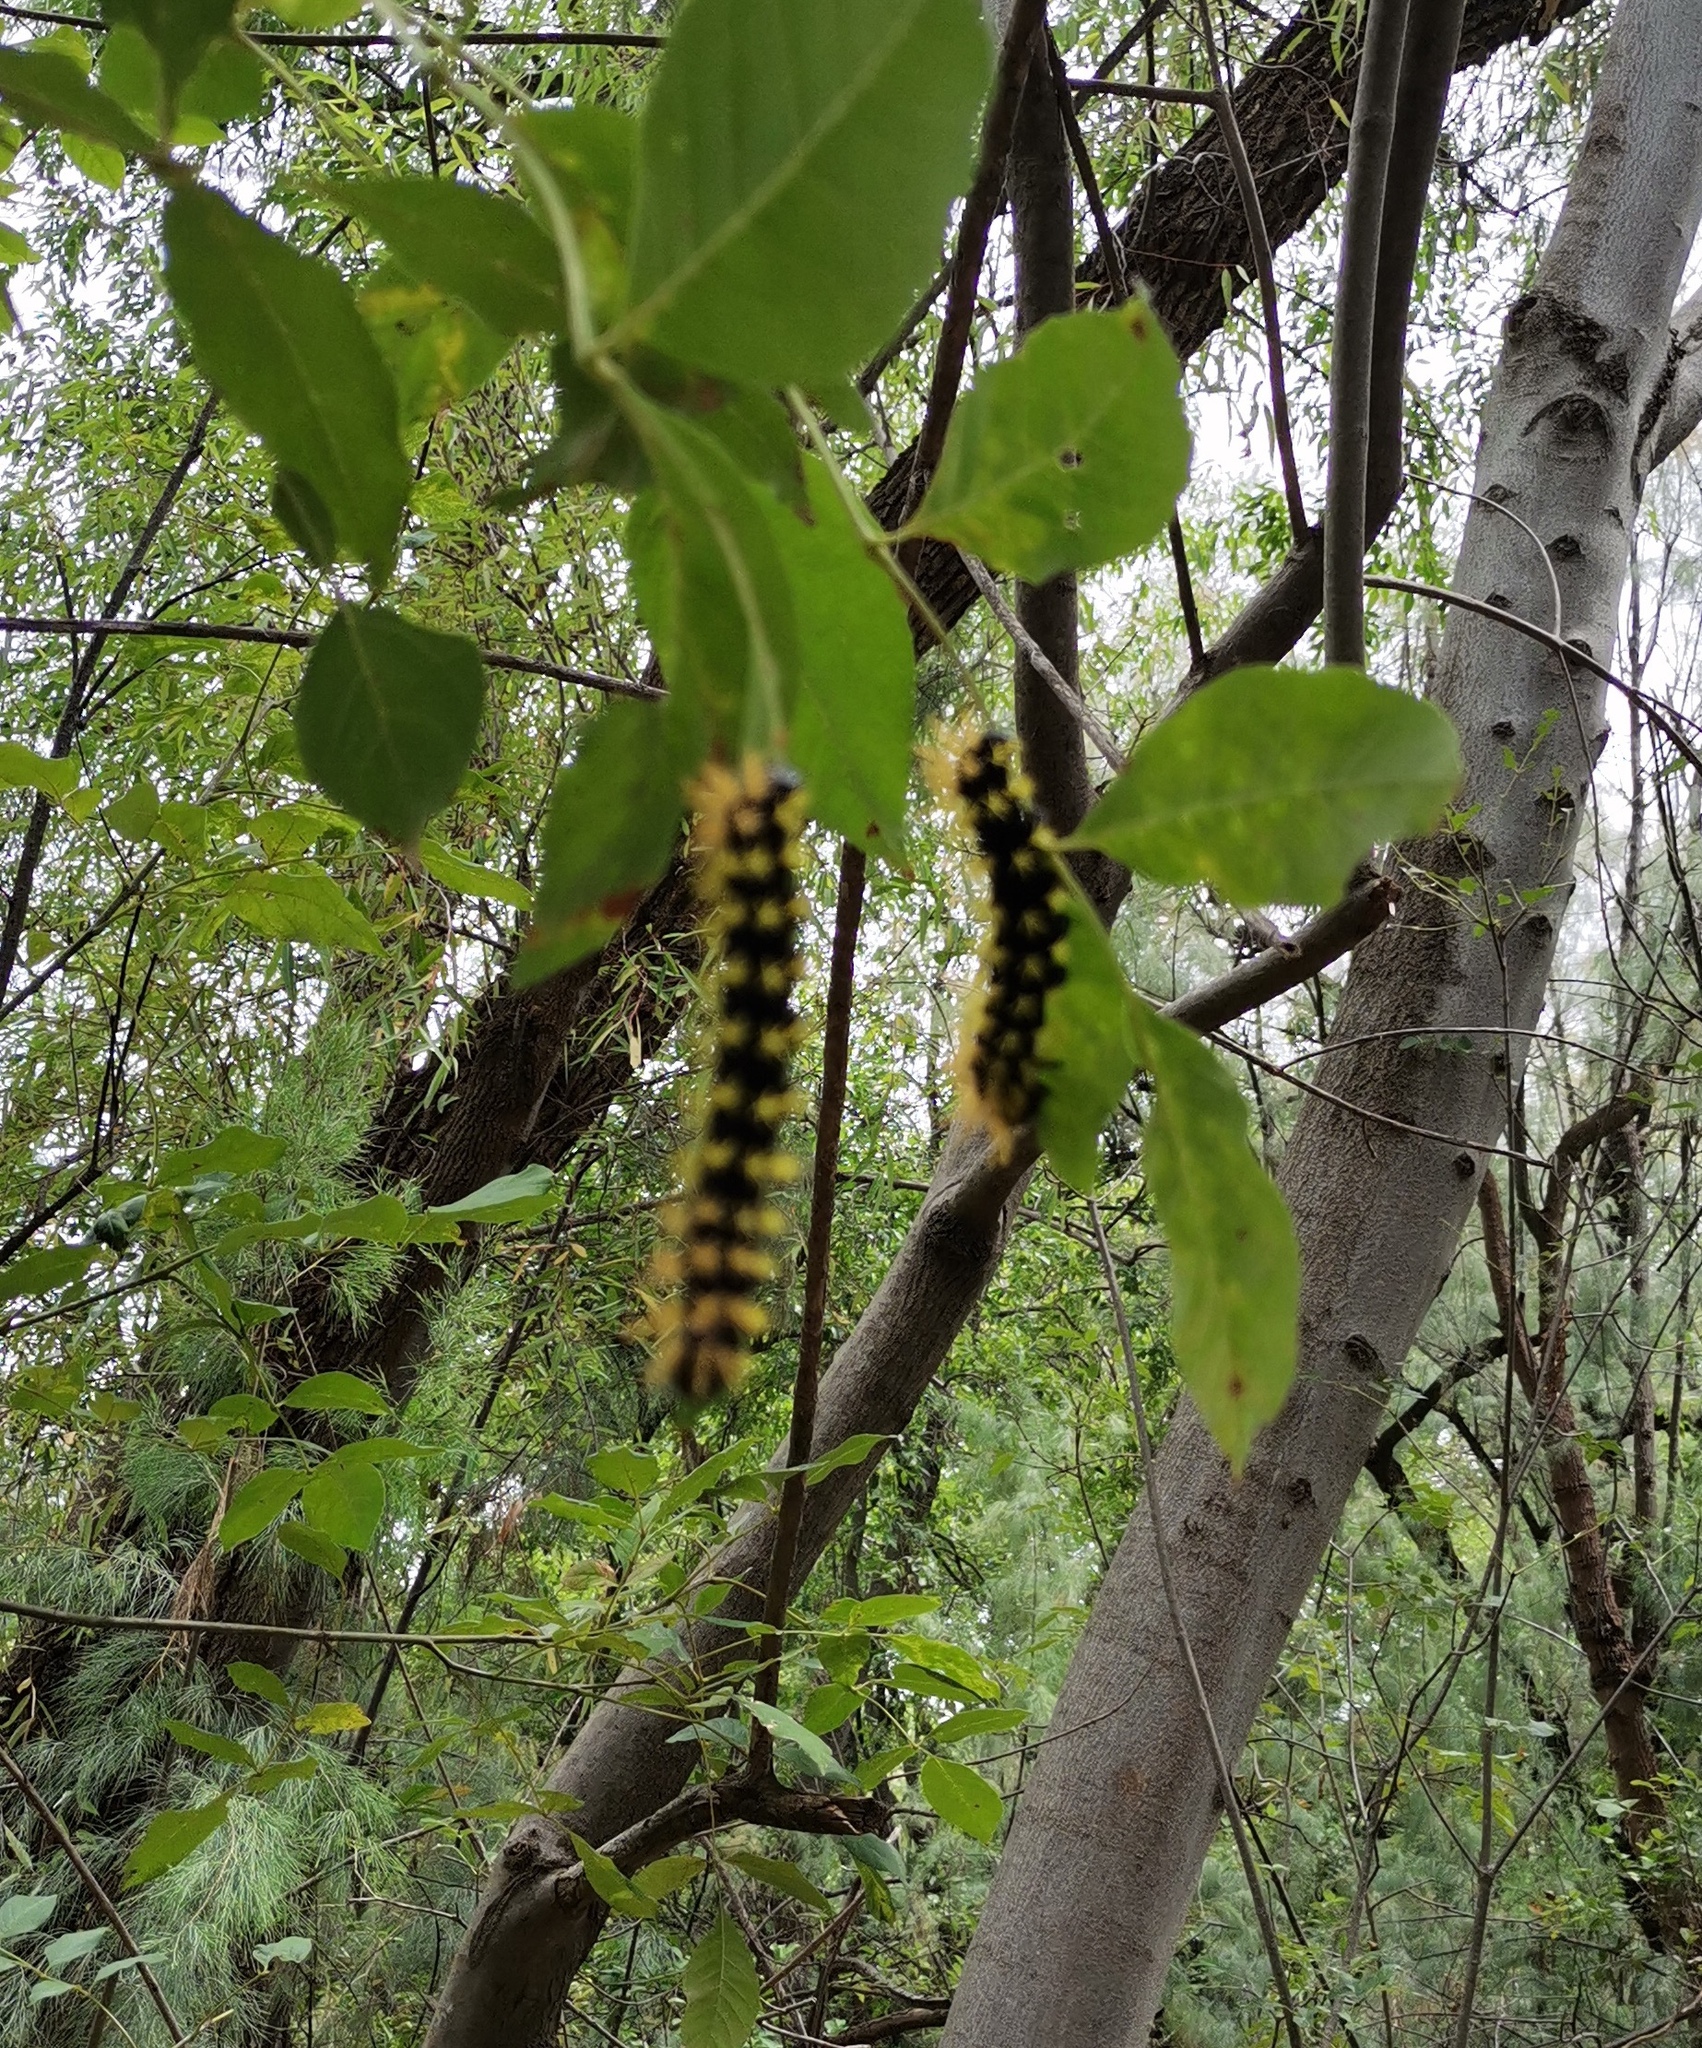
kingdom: Plantae
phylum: Tracheophyta
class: Magnoliopsida
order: Lamiales
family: Oleaceae
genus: Fraxinus
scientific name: Fraxinus uhdei
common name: Shamel ash
